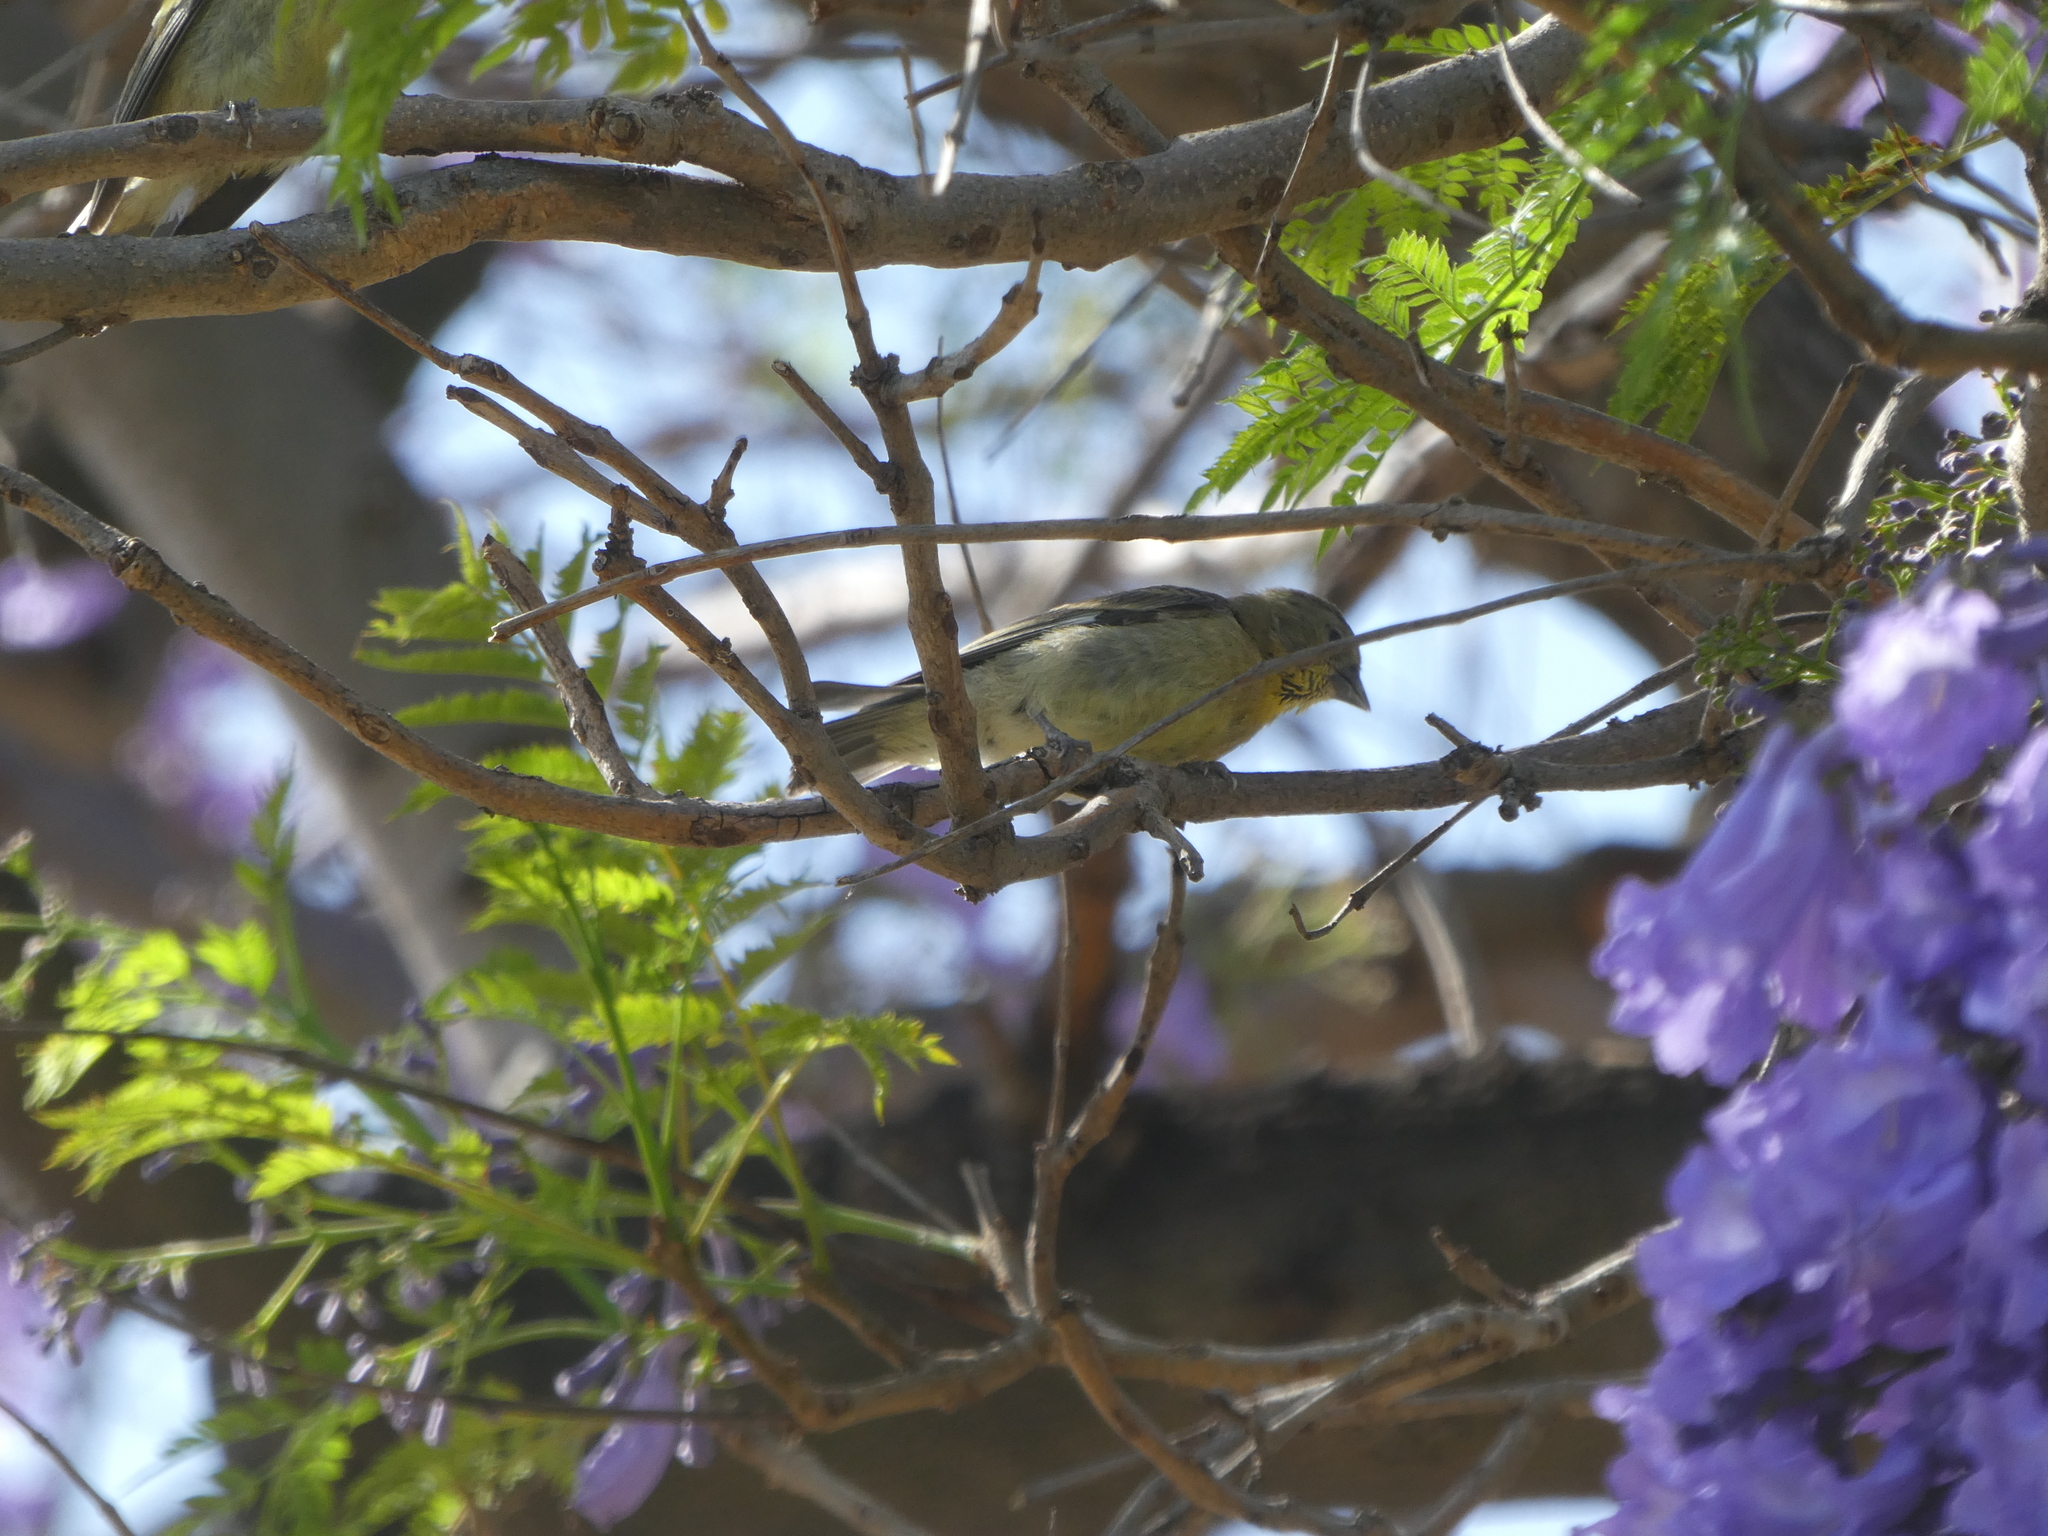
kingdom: Animalia
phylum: Chordata
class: Aves
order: Passeriformes
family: Fringillidae
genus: Spinus
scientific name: Spinus psaltria
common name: Lesser goldfinch
